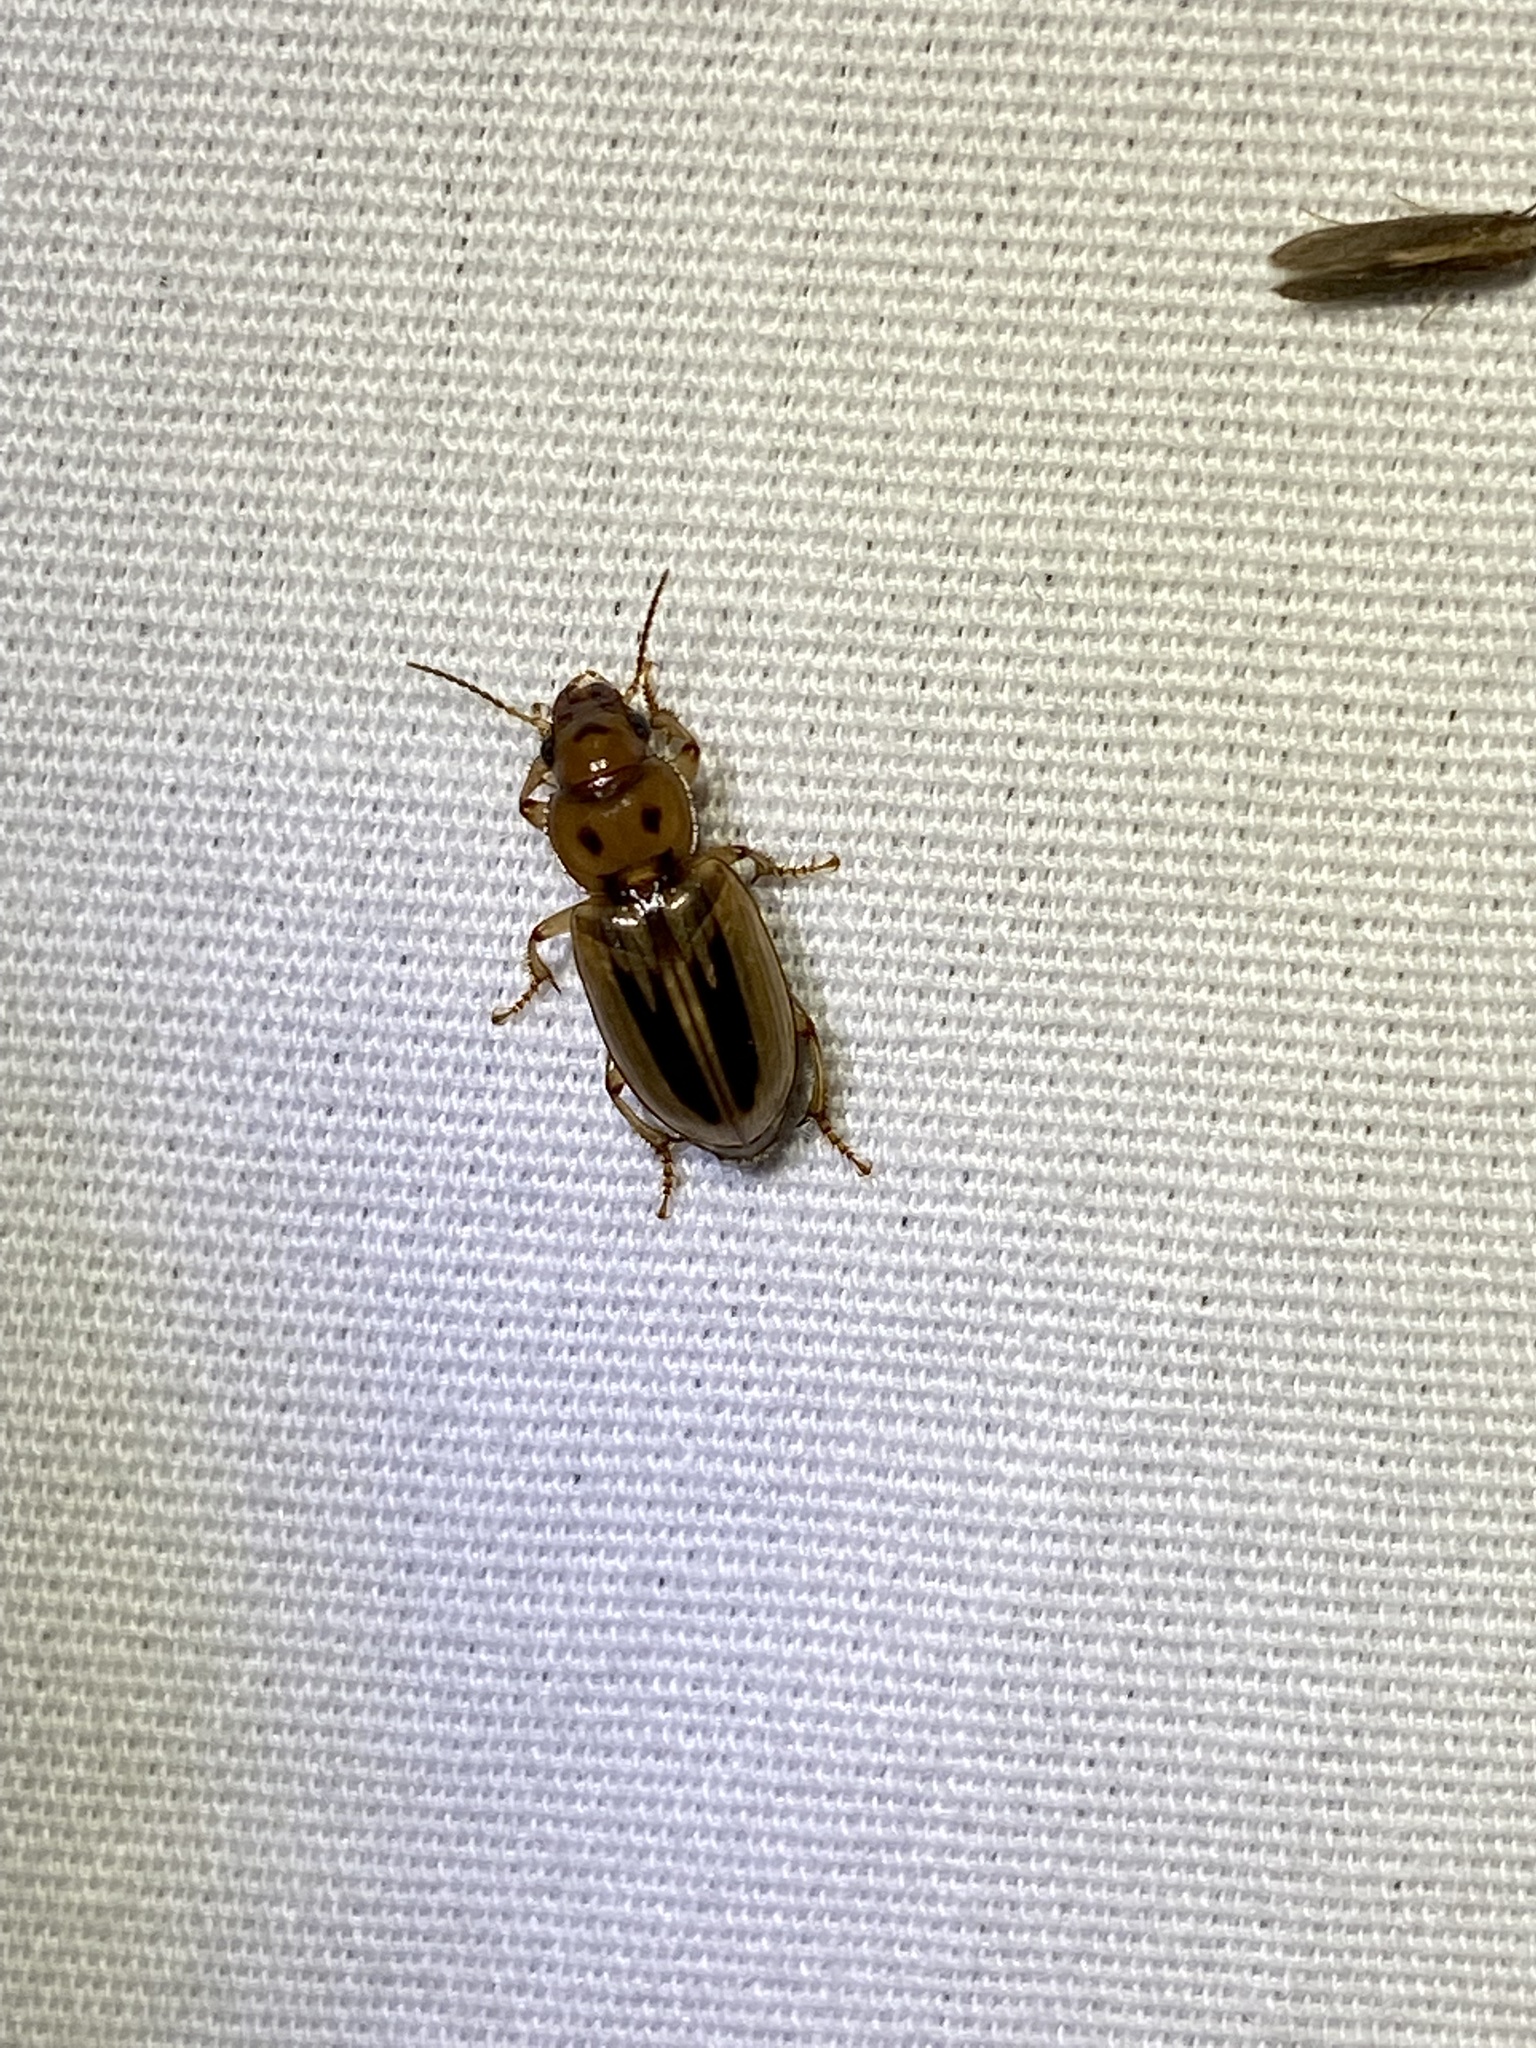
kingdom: Animalia
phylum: Arthropoda
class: Insecta
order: Coleoptera
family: Carabidae
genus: Stenolophus
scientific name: Stenolophus lineola
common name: Lined stenolophus
